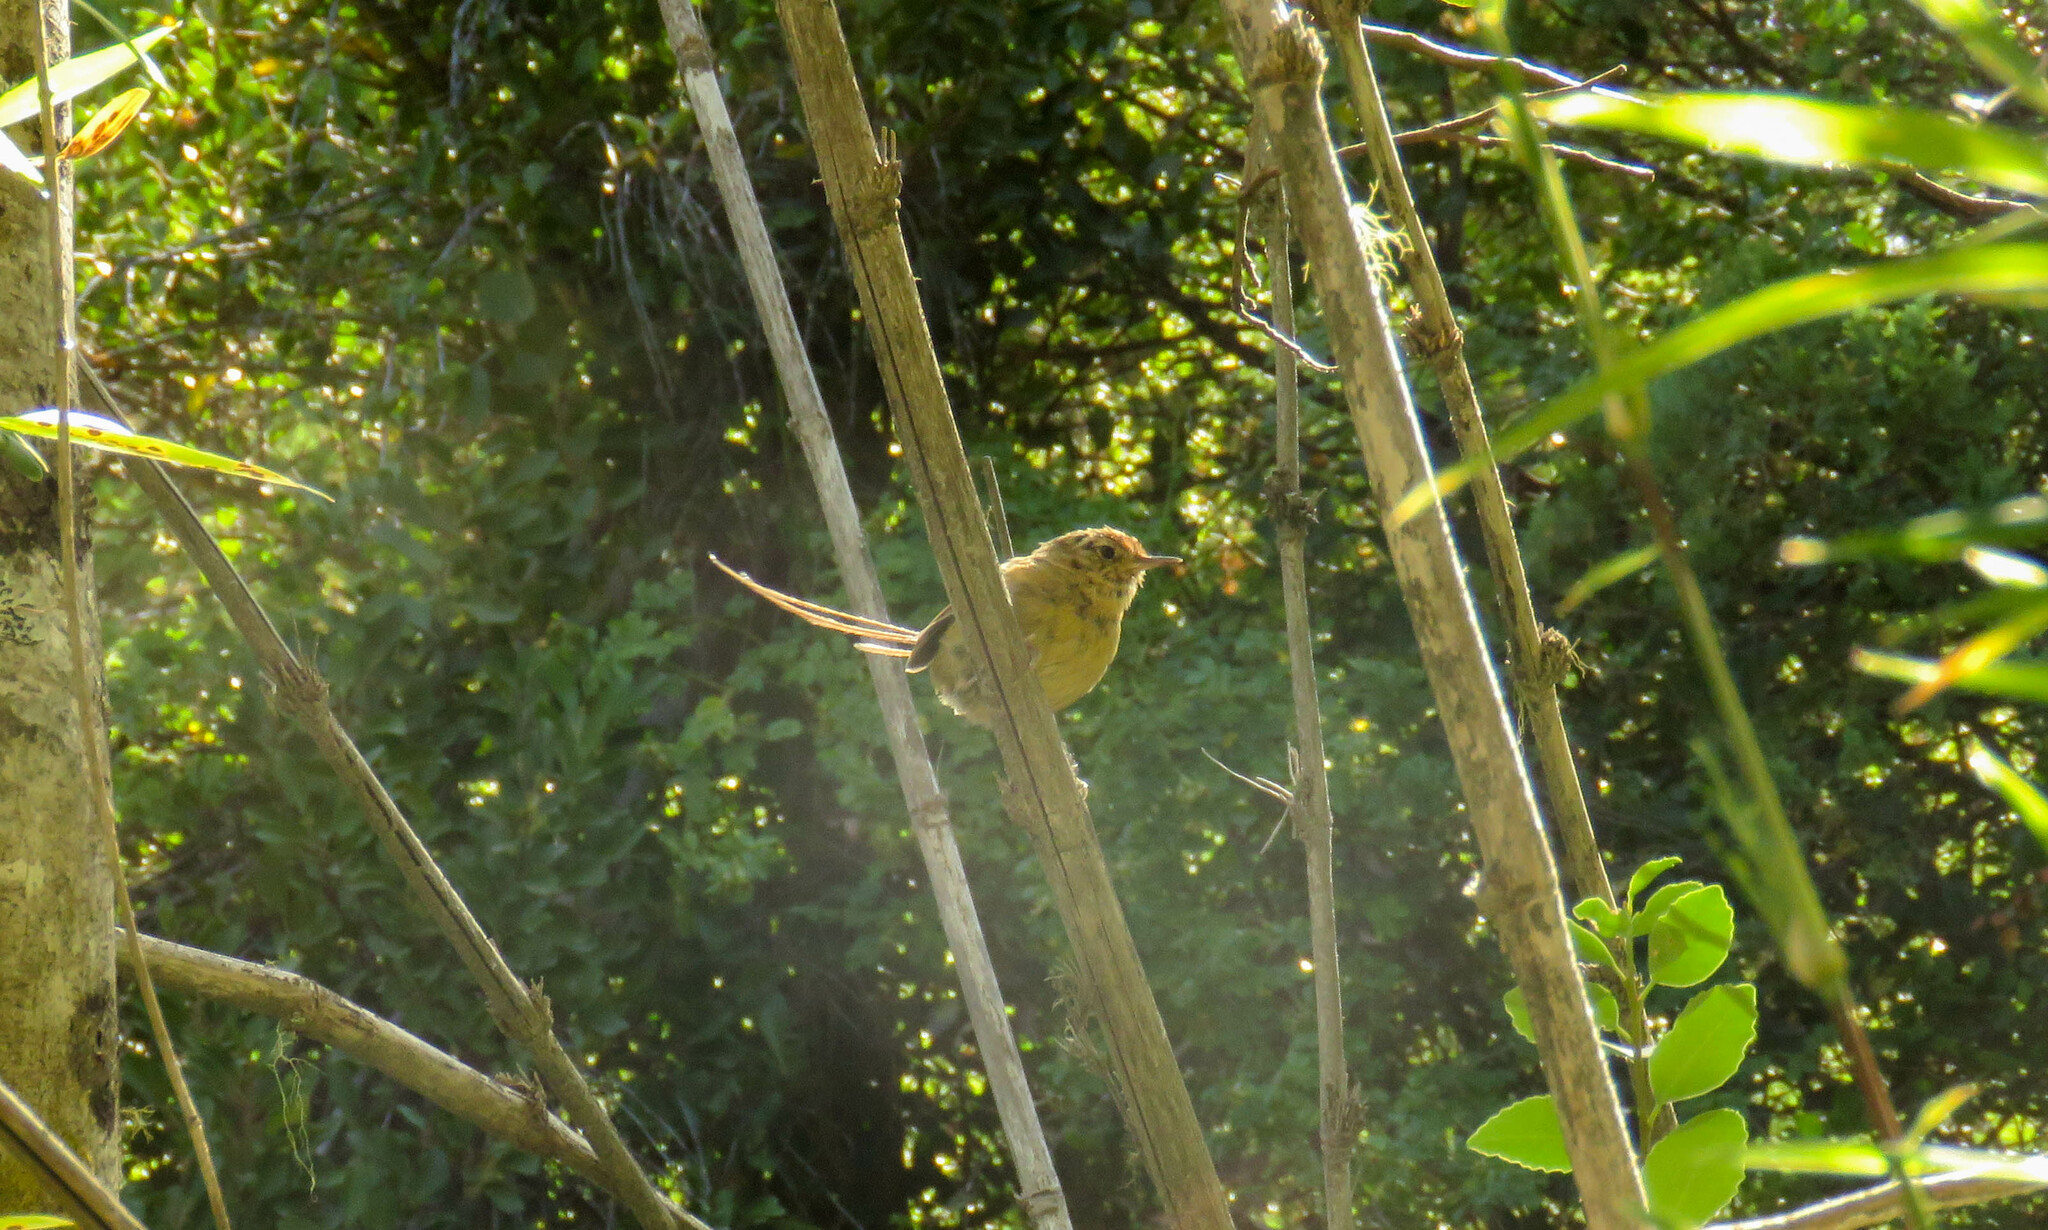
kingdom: Animalia
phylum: Chordata
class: Aves
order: Passeriformes
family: Furnariidae
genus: Sylviorthorhynchus
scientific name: Sylviorthorhynchus desmursii
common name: Des murs's wiretail
